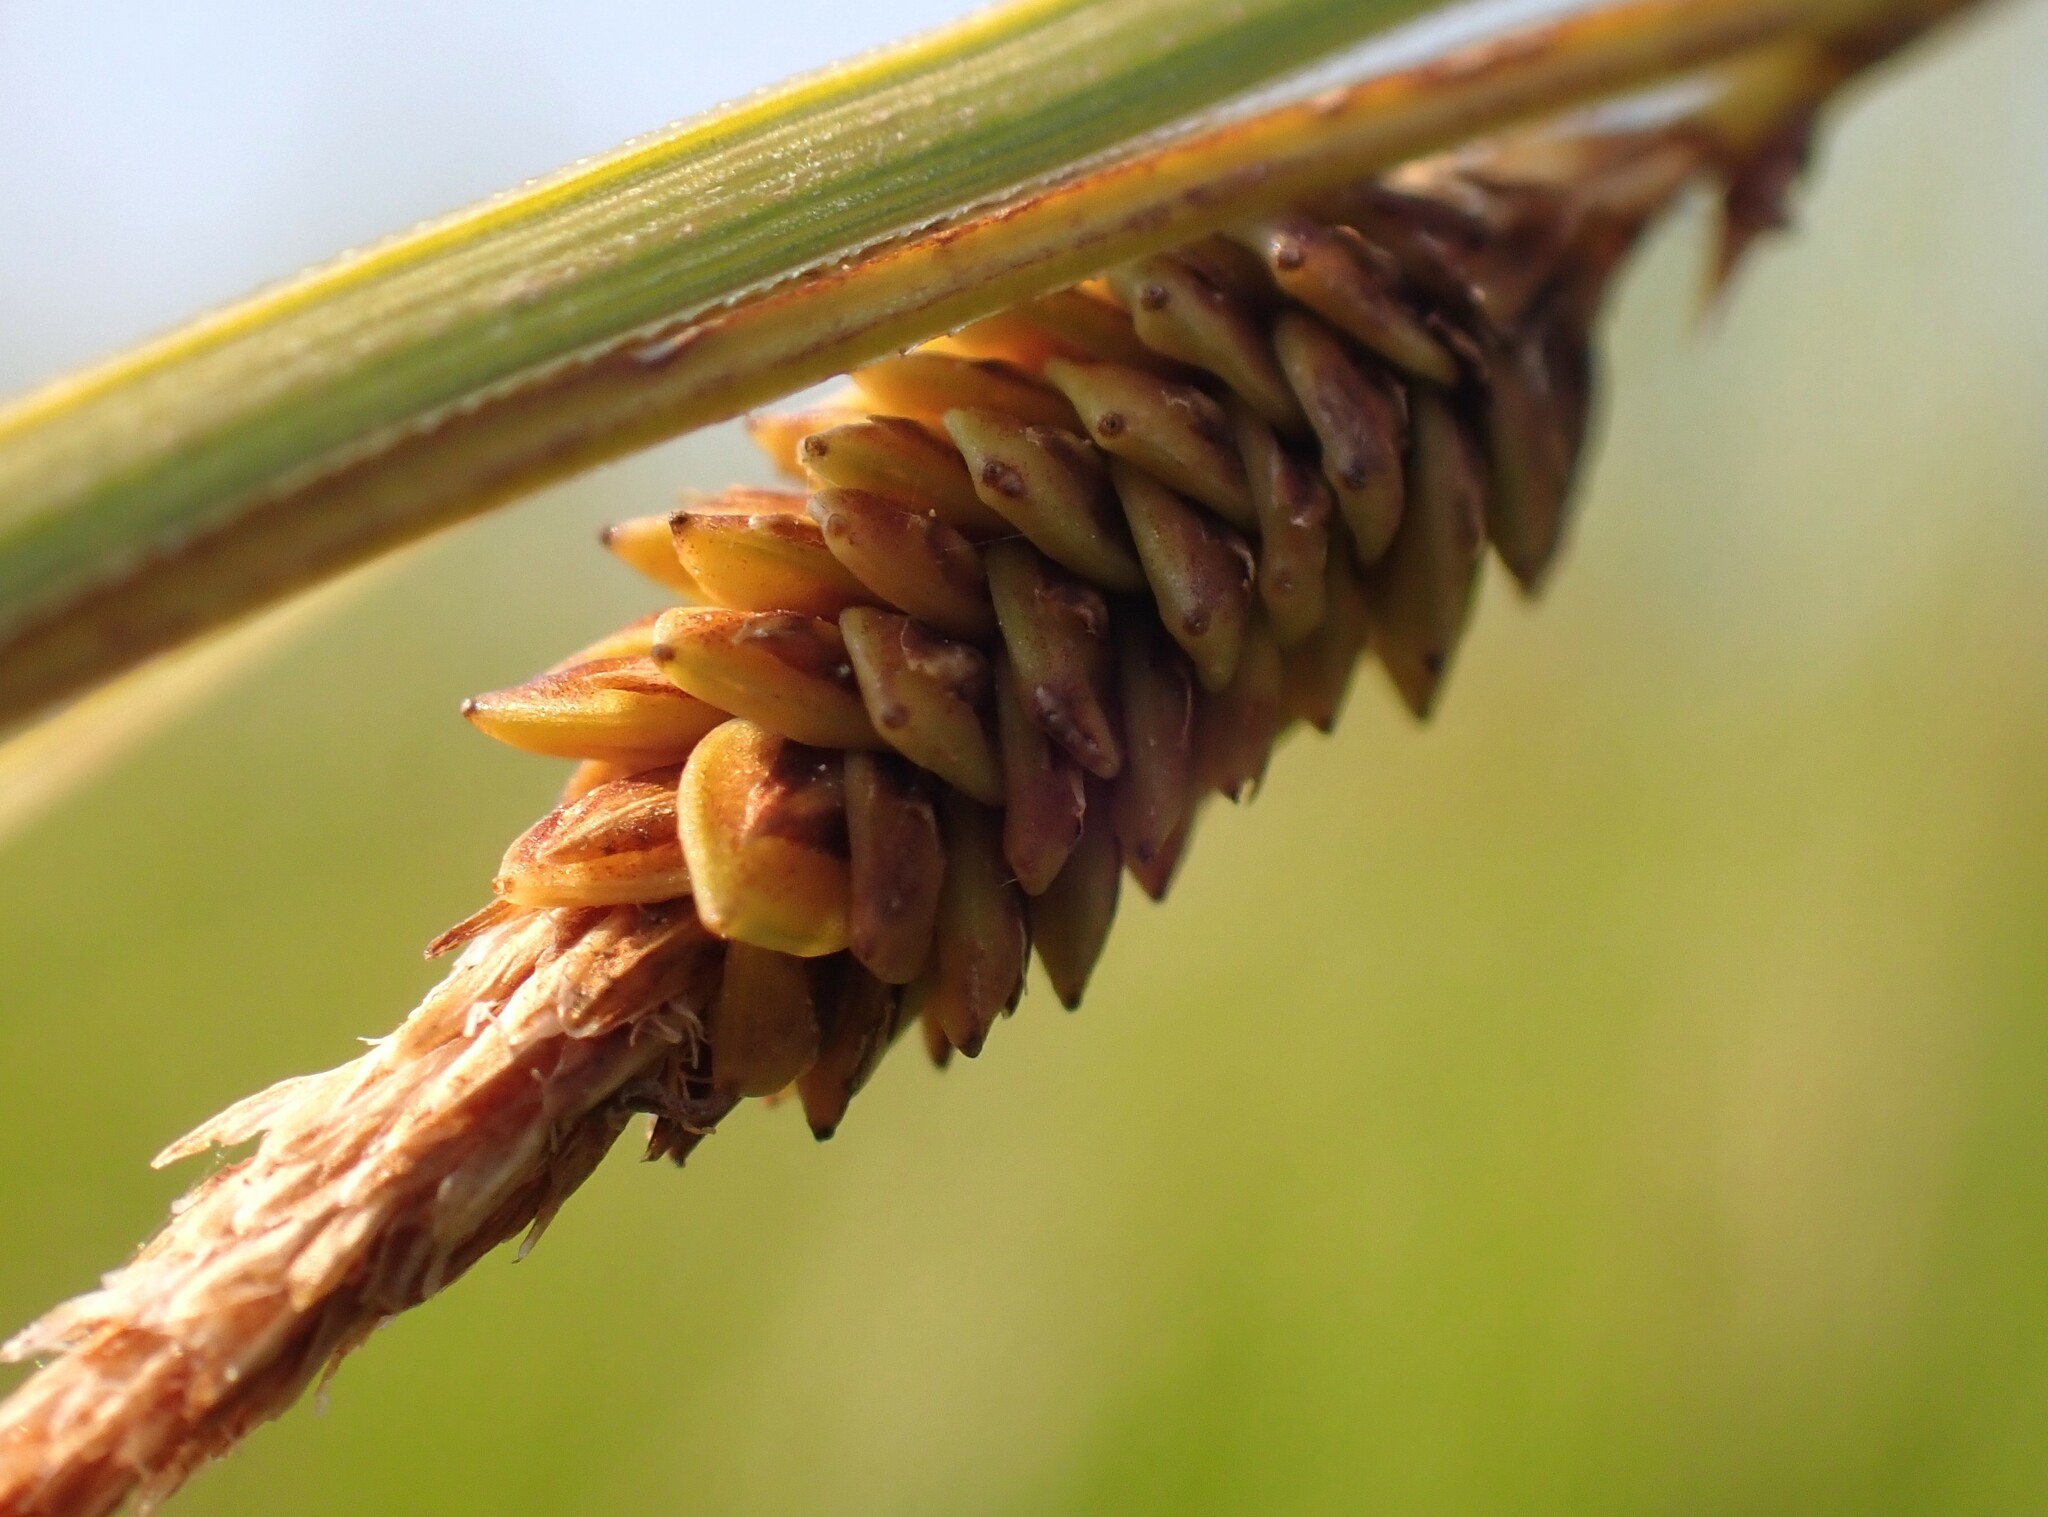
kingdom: Plantae
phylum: Tracheophyta
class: Liliopsida
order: Poales
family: Cyperaceae
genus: Carex
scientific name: Carex aquatilis
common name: Water sedge
